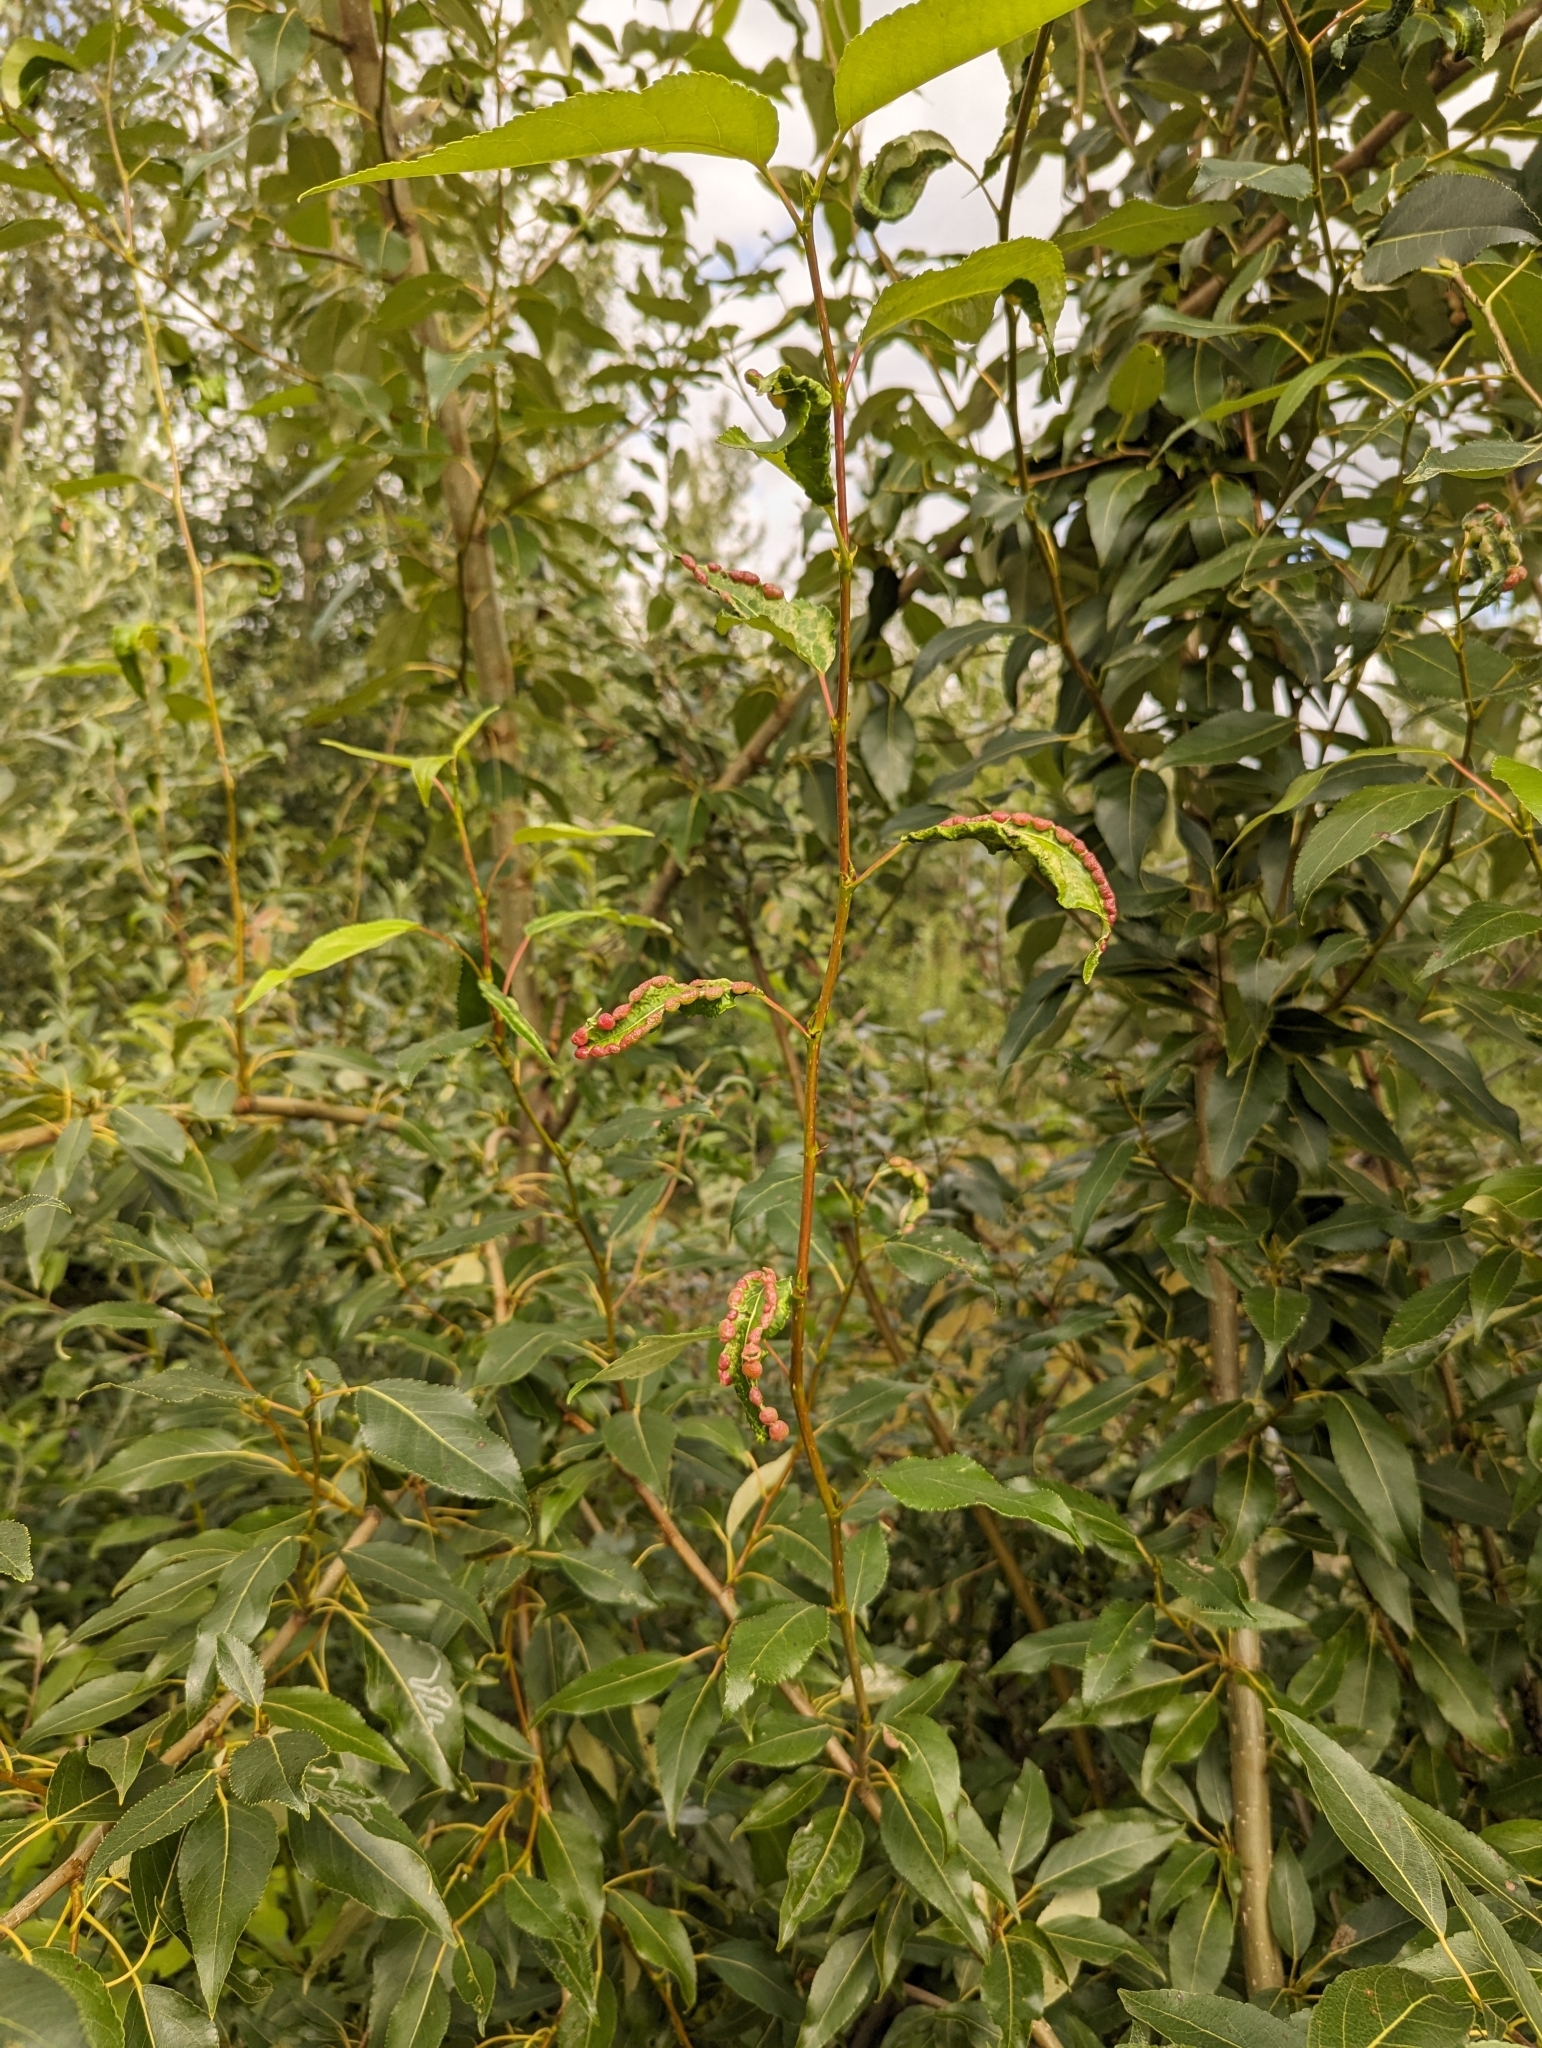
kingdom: Plantae
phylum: Tracheophyta
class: Magnoliopsida
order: Malpighiales
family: Salicaceae
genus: Populus
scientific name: Populus balsamifera
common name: Balsam poplar
